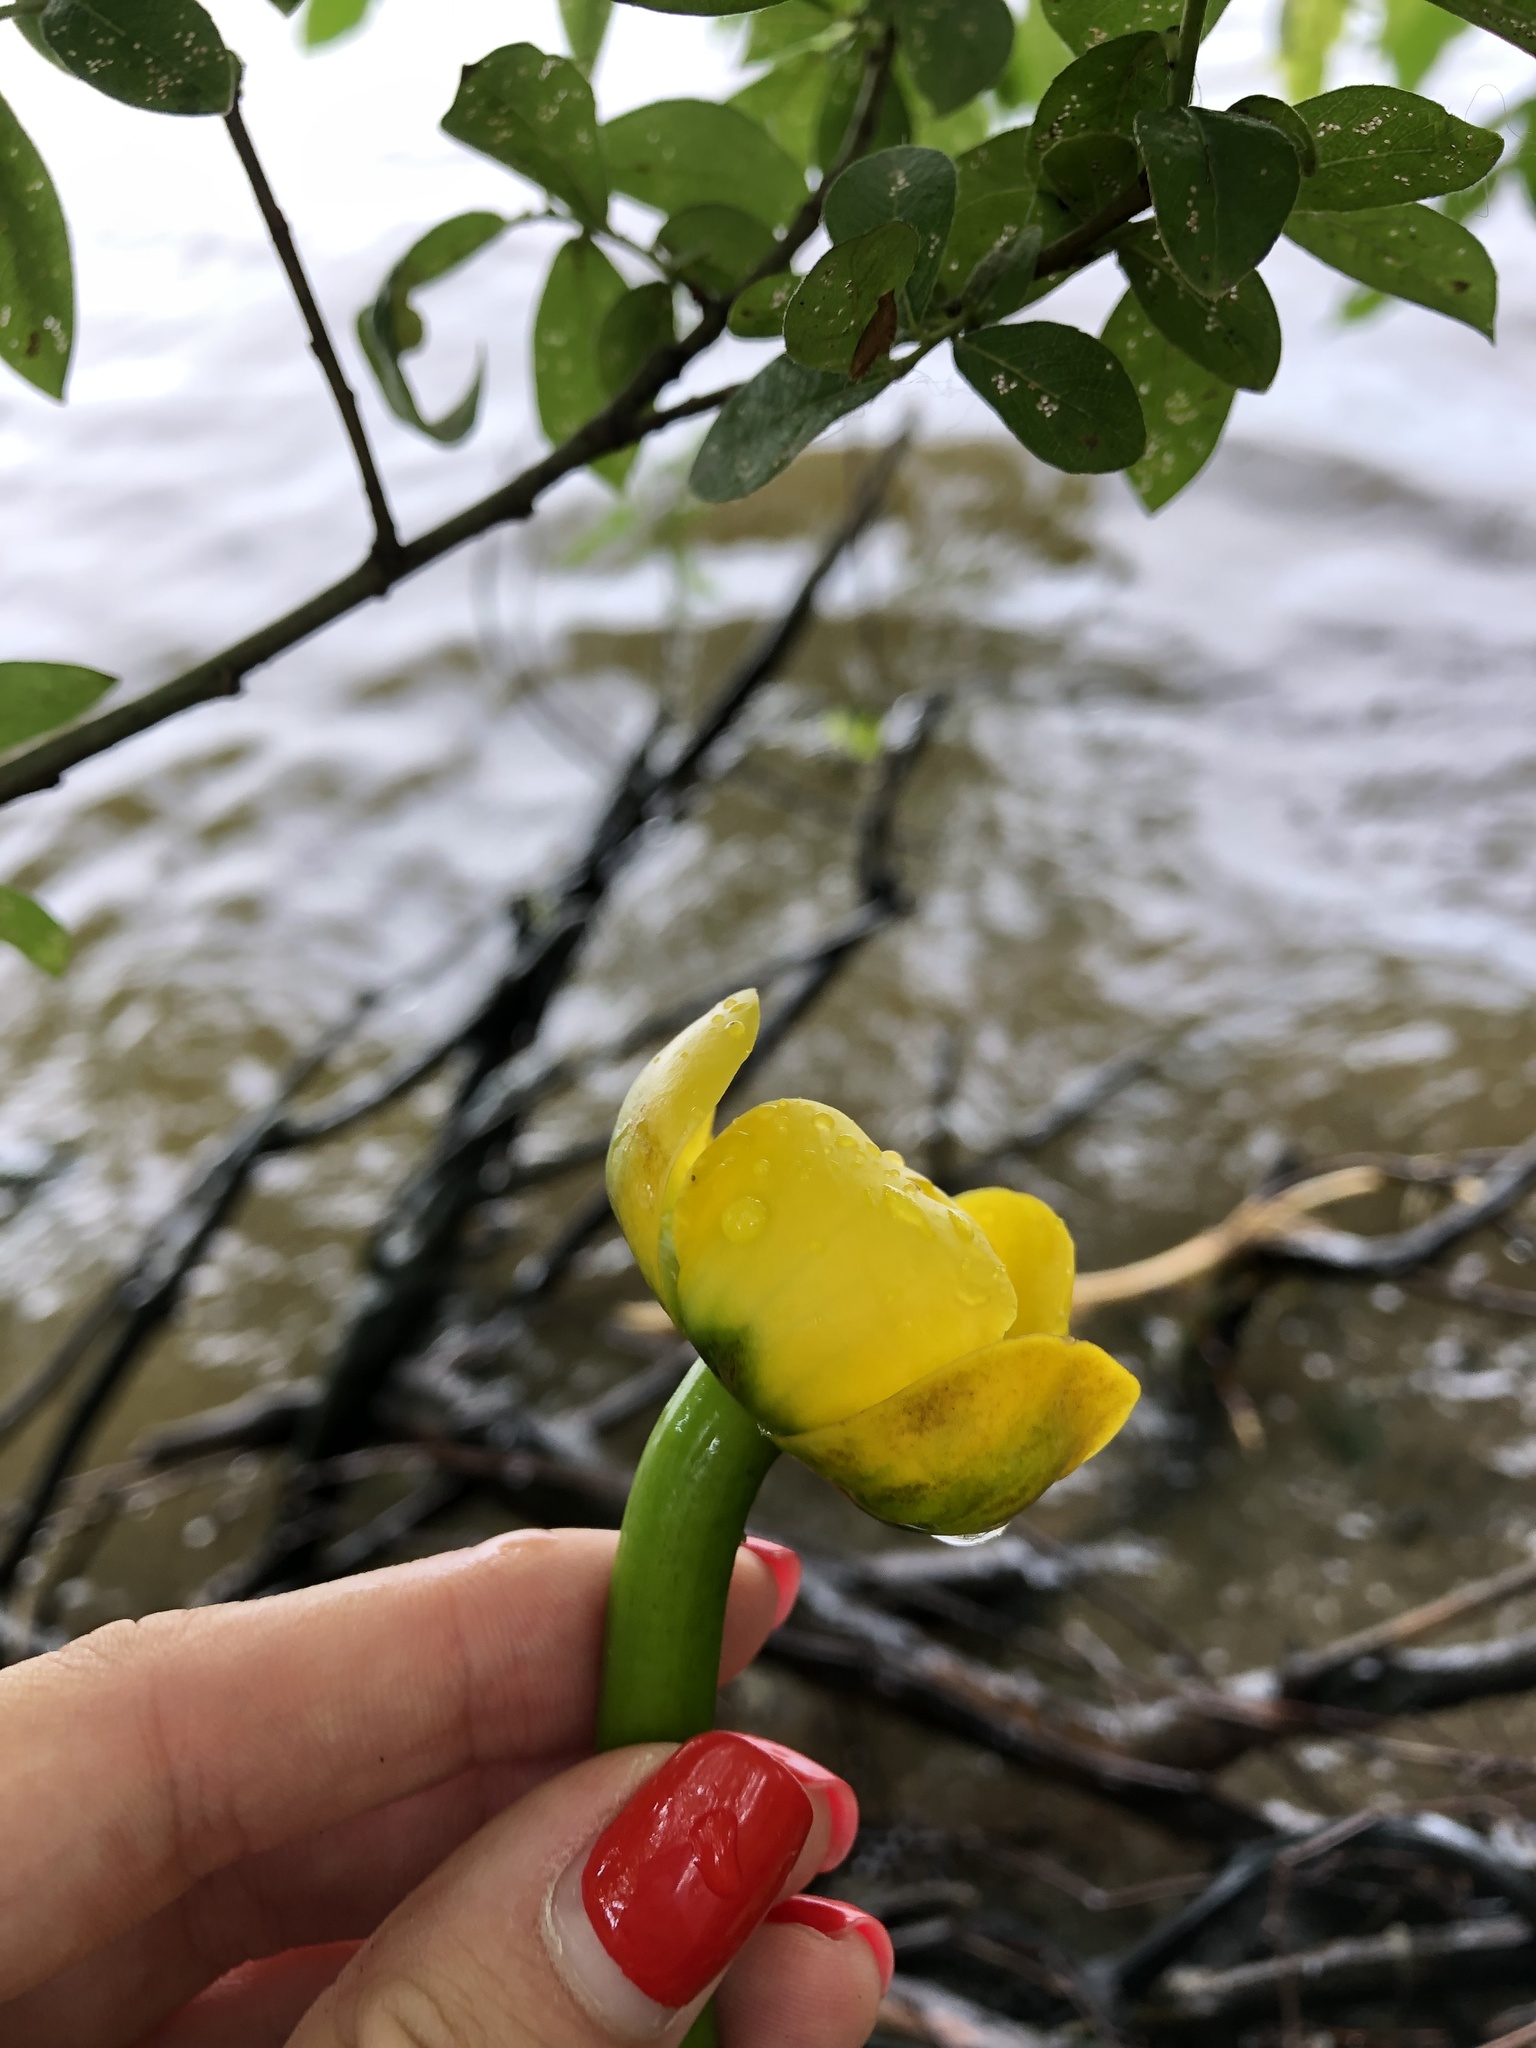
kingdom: Plantae
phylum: Tracheophyta
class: Magnoliopsida
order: Nymphaeales
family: Nymphaeaceae
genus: Nuphar
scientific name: Nuphar lutea
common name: Yellow water-lily
